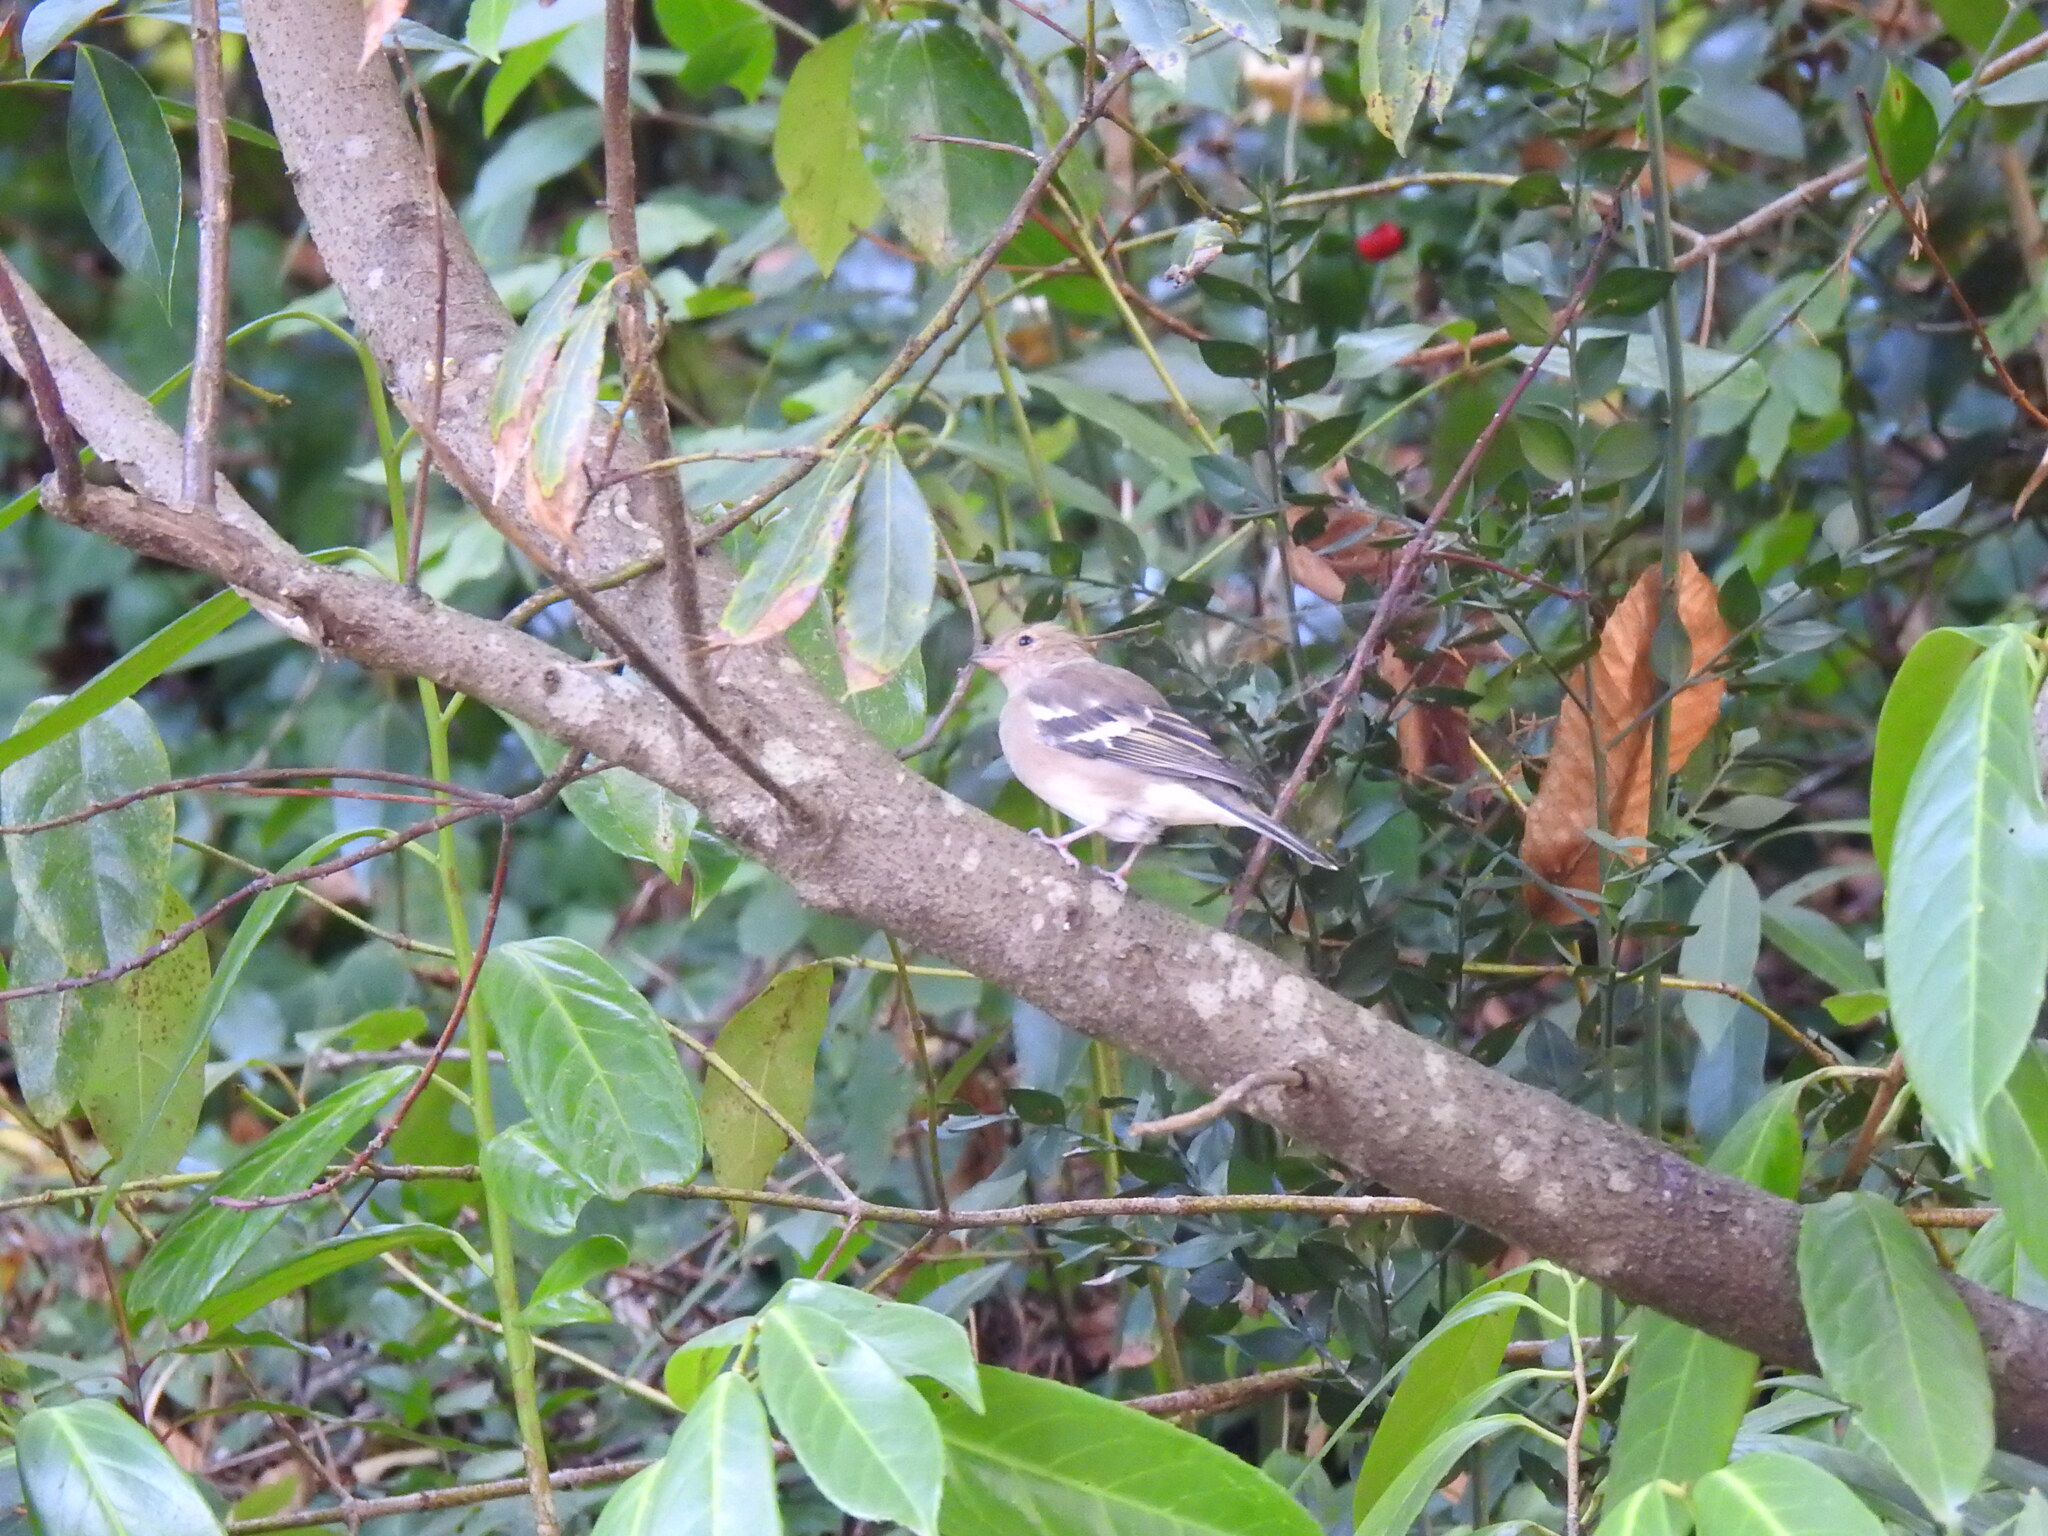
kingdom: Animalia
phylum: Chordata
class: Aves
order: Passeriformes
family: Fringillidae
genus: Fringilla
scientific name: Fringilla coelebs
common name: Common chaffinch
